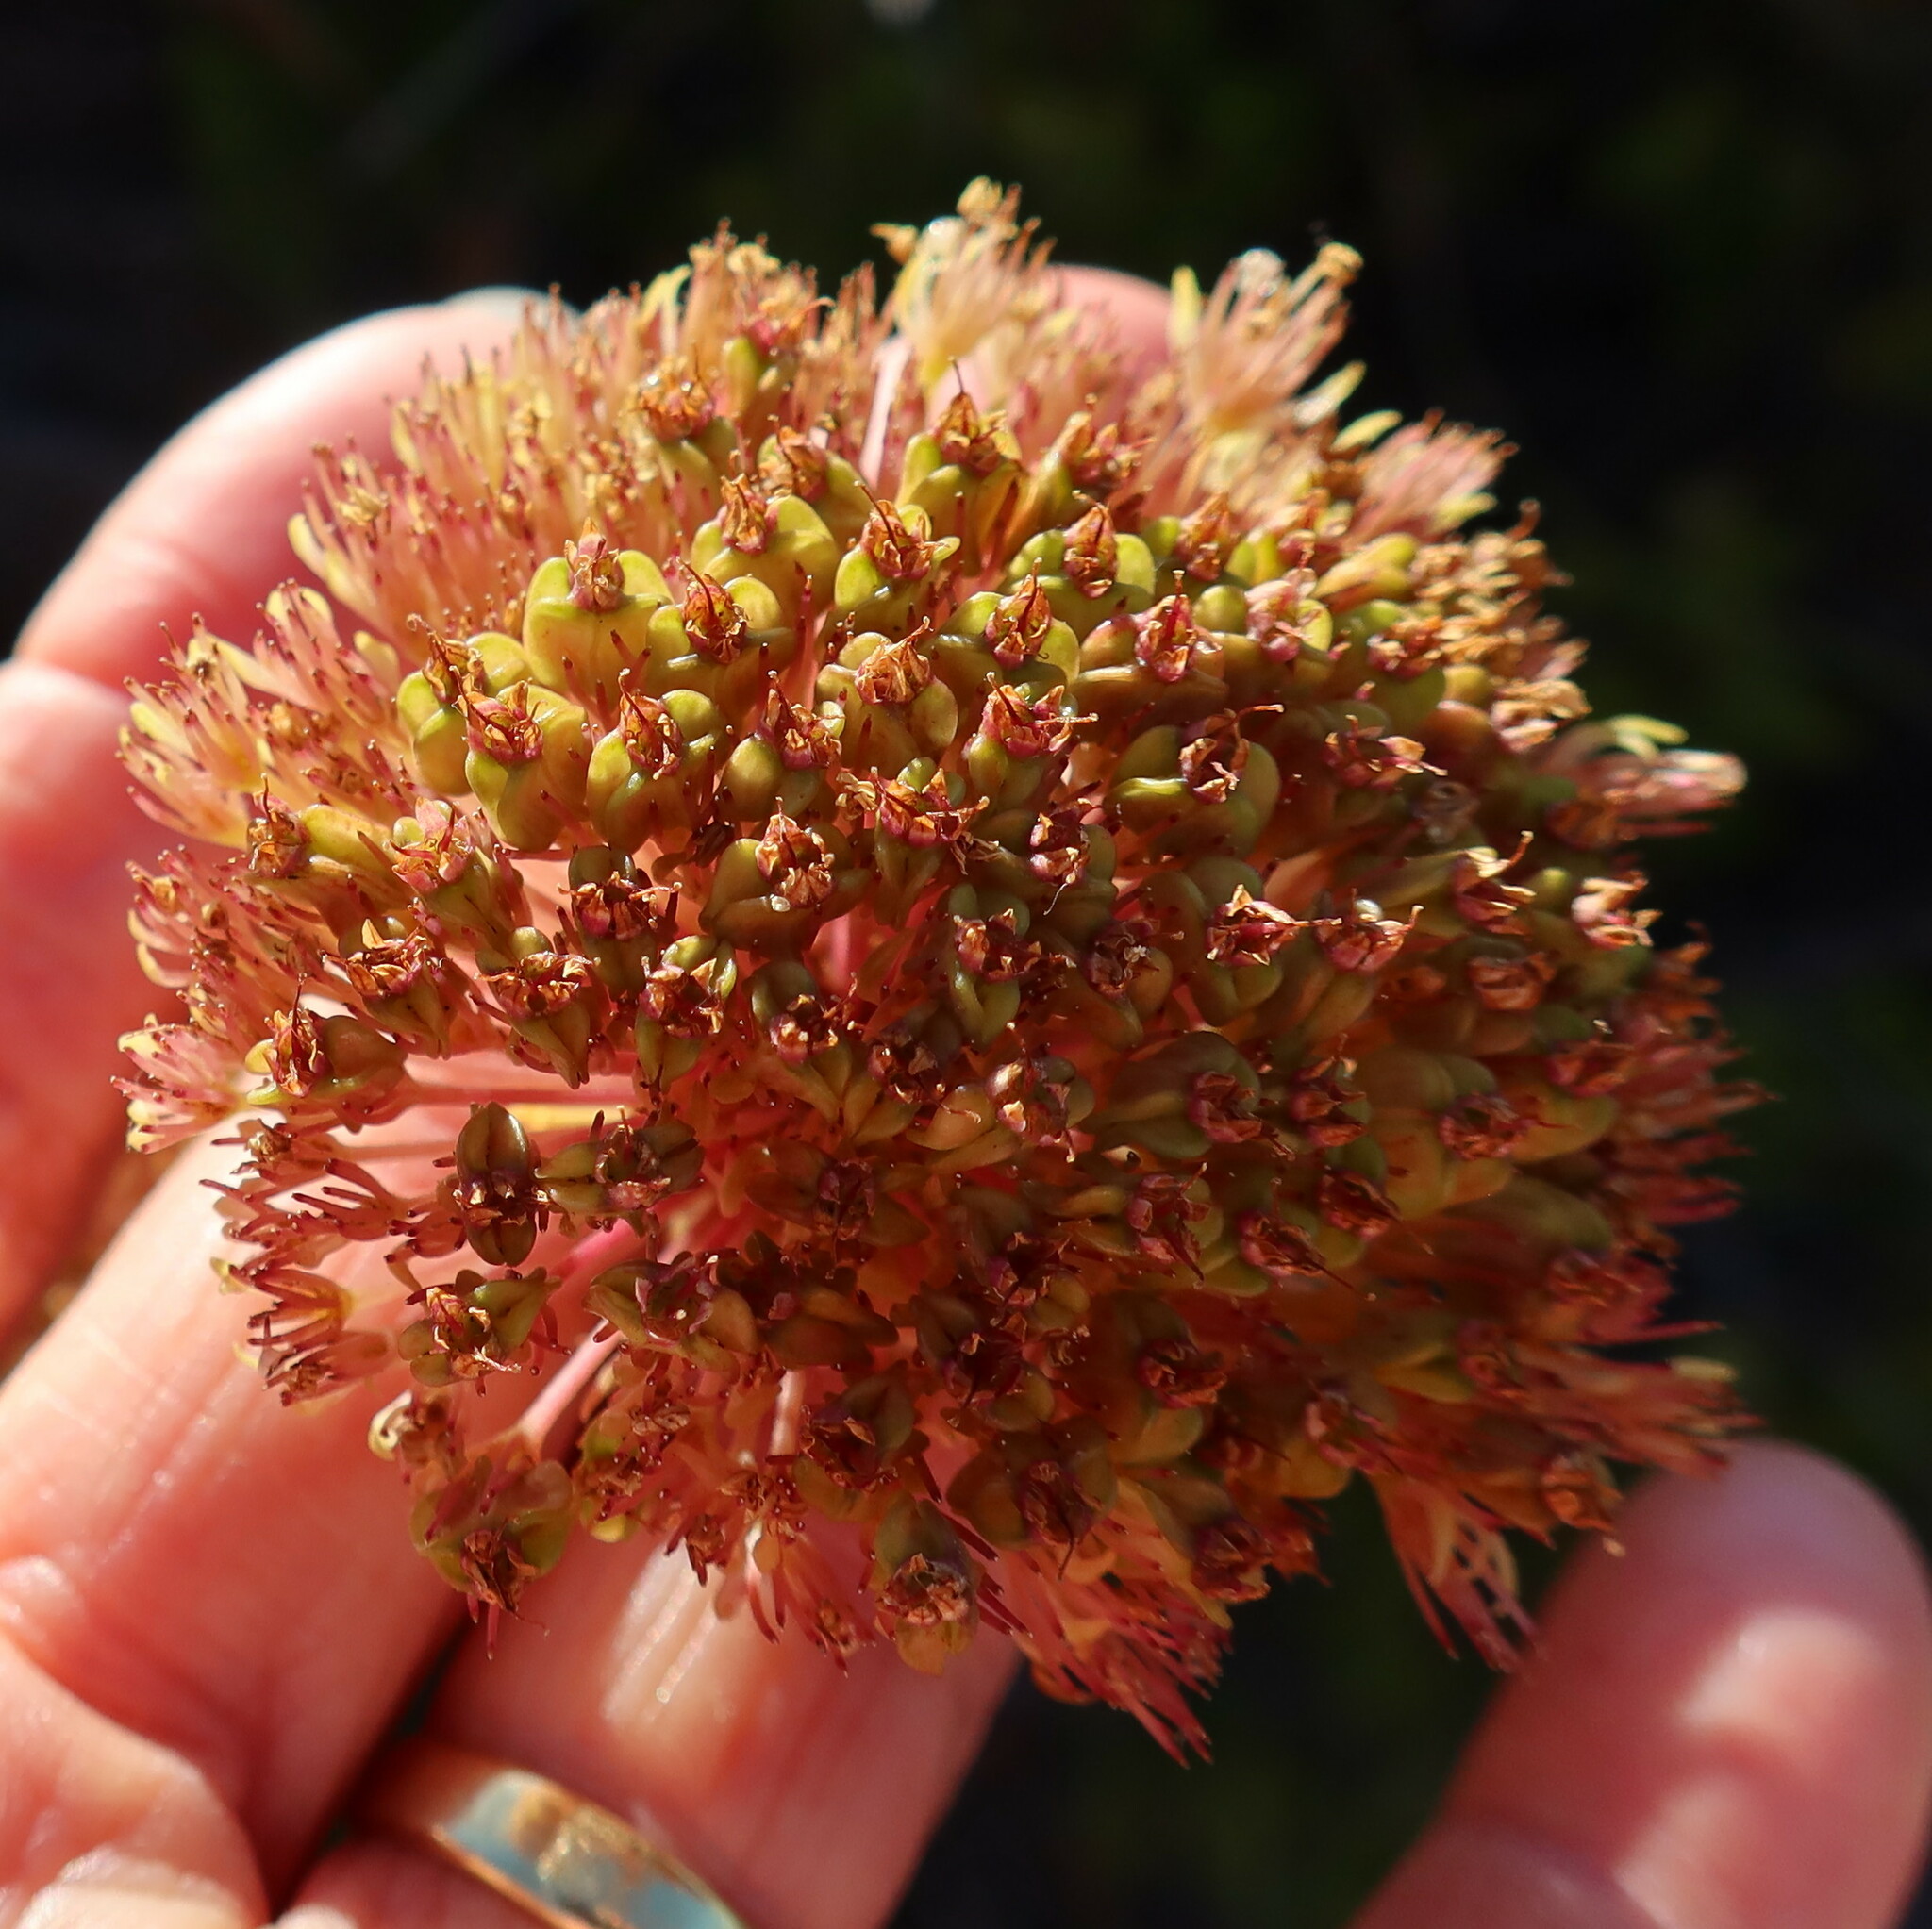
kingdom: Plantae
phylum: Tracheophyta
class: Magnoliopsida
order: Apiales
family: Apiaceae
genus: Hermas
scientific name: Hermas villosa
